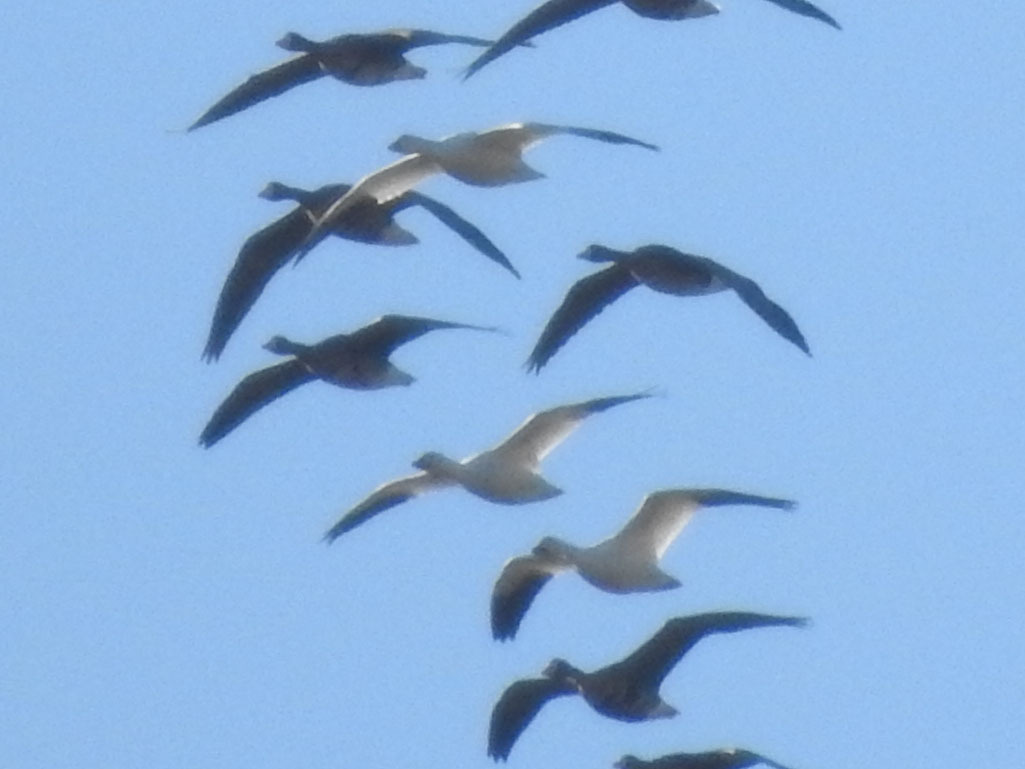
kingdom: Animalia
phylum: Chordata
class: Aves
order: Anseriformes
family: Anatidae
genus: Anser
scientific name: Anser caerulescens
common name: Snow goose
